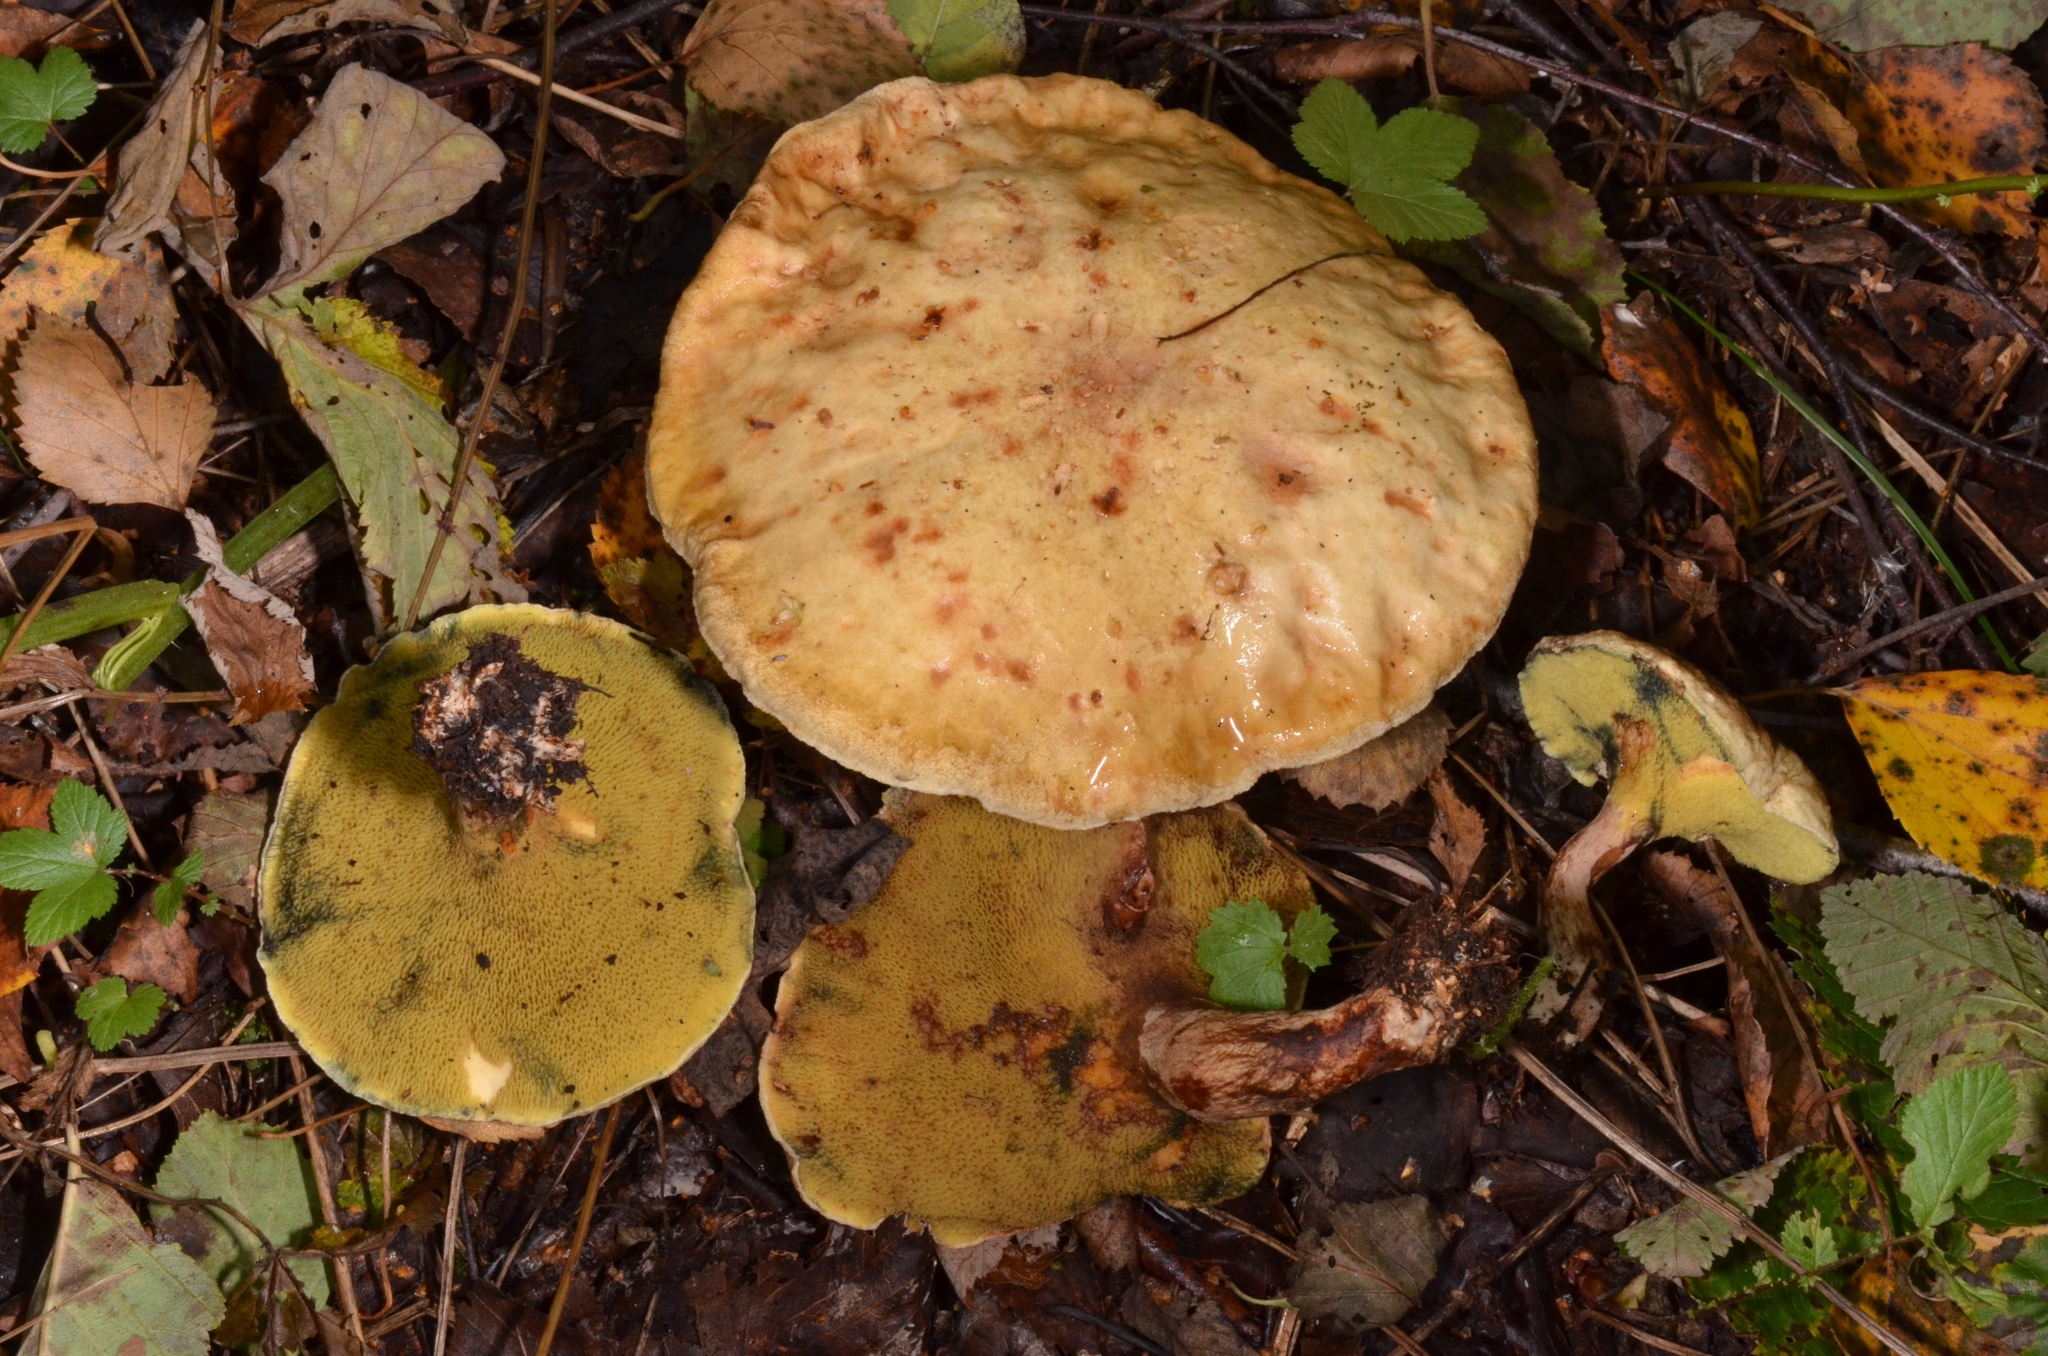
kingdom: Fungi
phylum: Basidiomycota
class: Agaricomycetes
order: Boletales
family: Paxillaceae
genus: Gyrodon
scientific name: Gyrodon lividus
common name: Alder bolete
